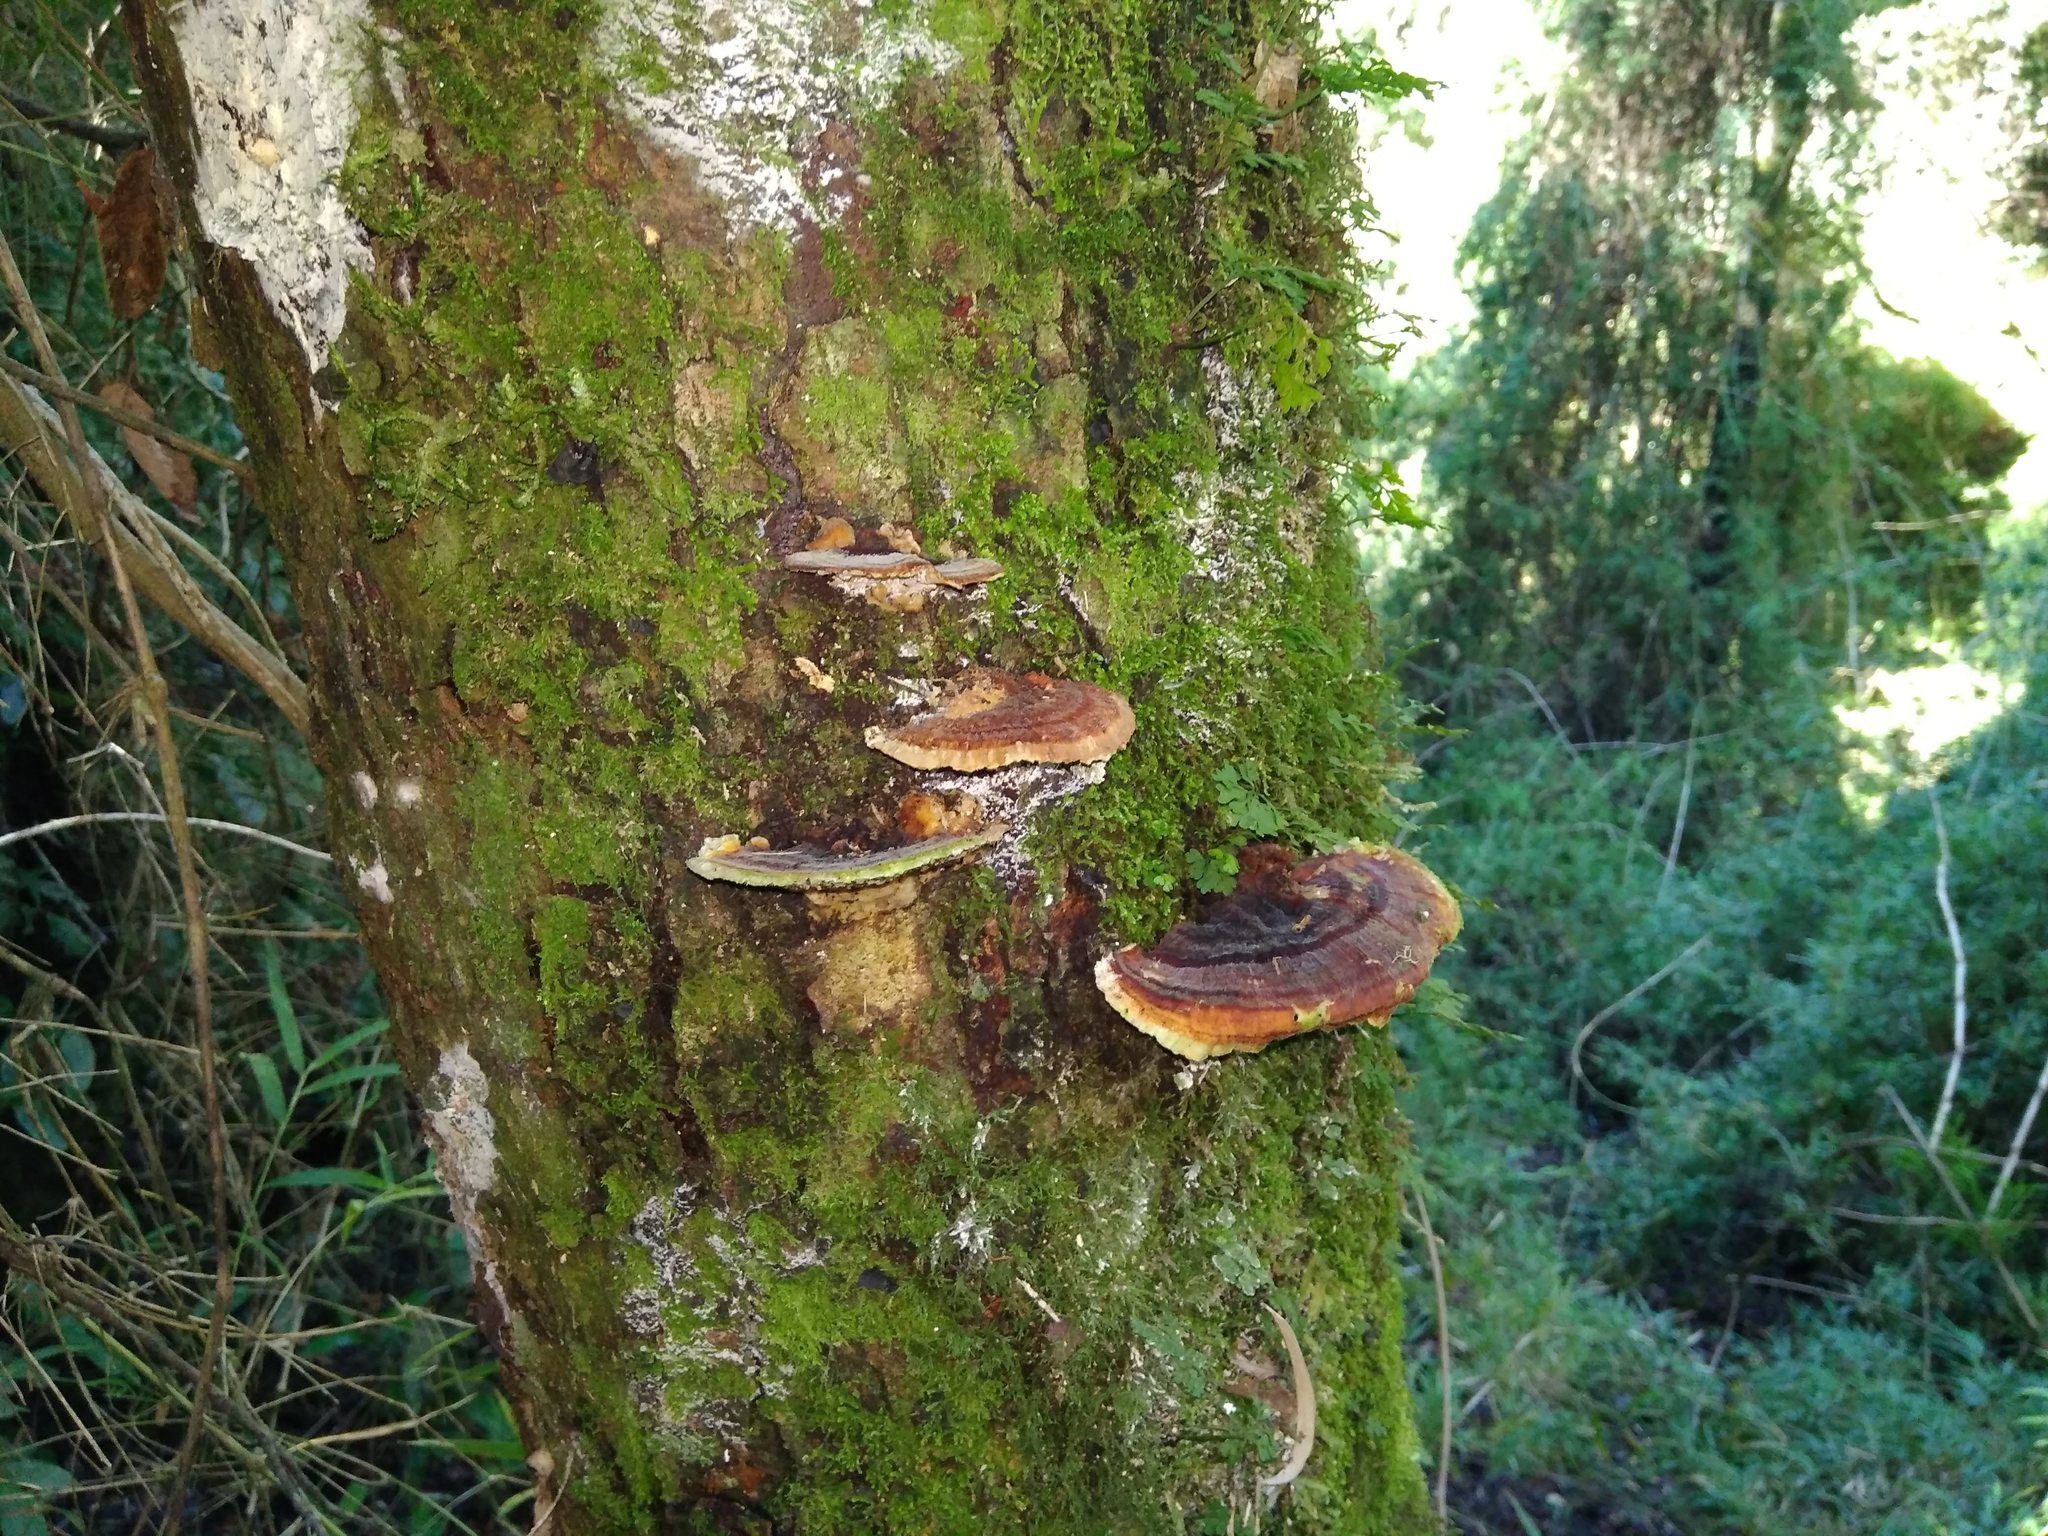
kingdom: Fungi
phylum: Basidiomycota
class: Agaricomycetes
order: Polyporales
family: Polyporaceae
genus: Trametes
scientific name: Trametes versicolor
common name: Turkeytail
